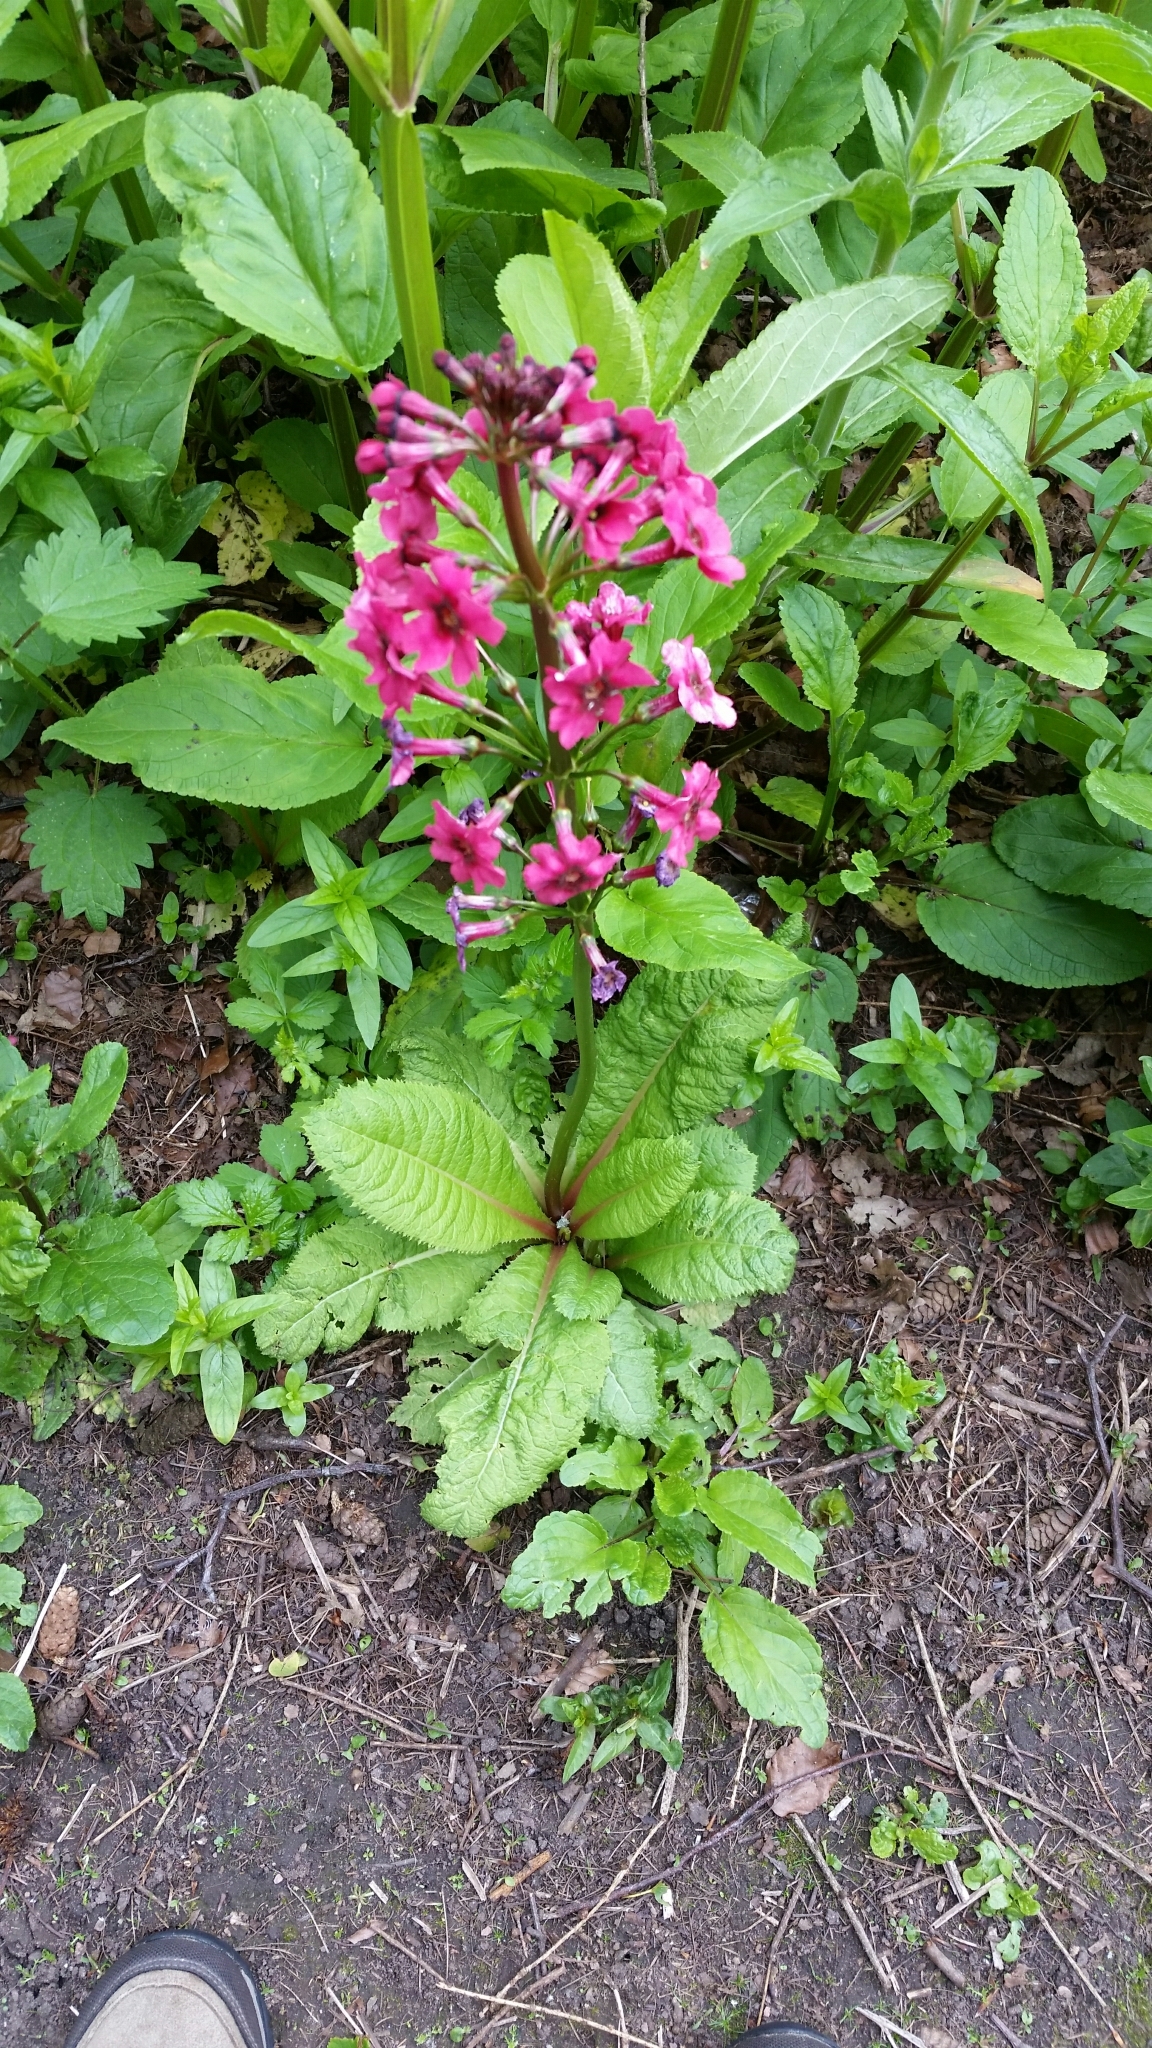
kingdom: Plantae
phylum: Tracheophyta
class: Magnoliopsida
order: Ericales
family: Primulaceae
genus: Primula
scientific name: Primula japonica
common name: Japanese cowslip
